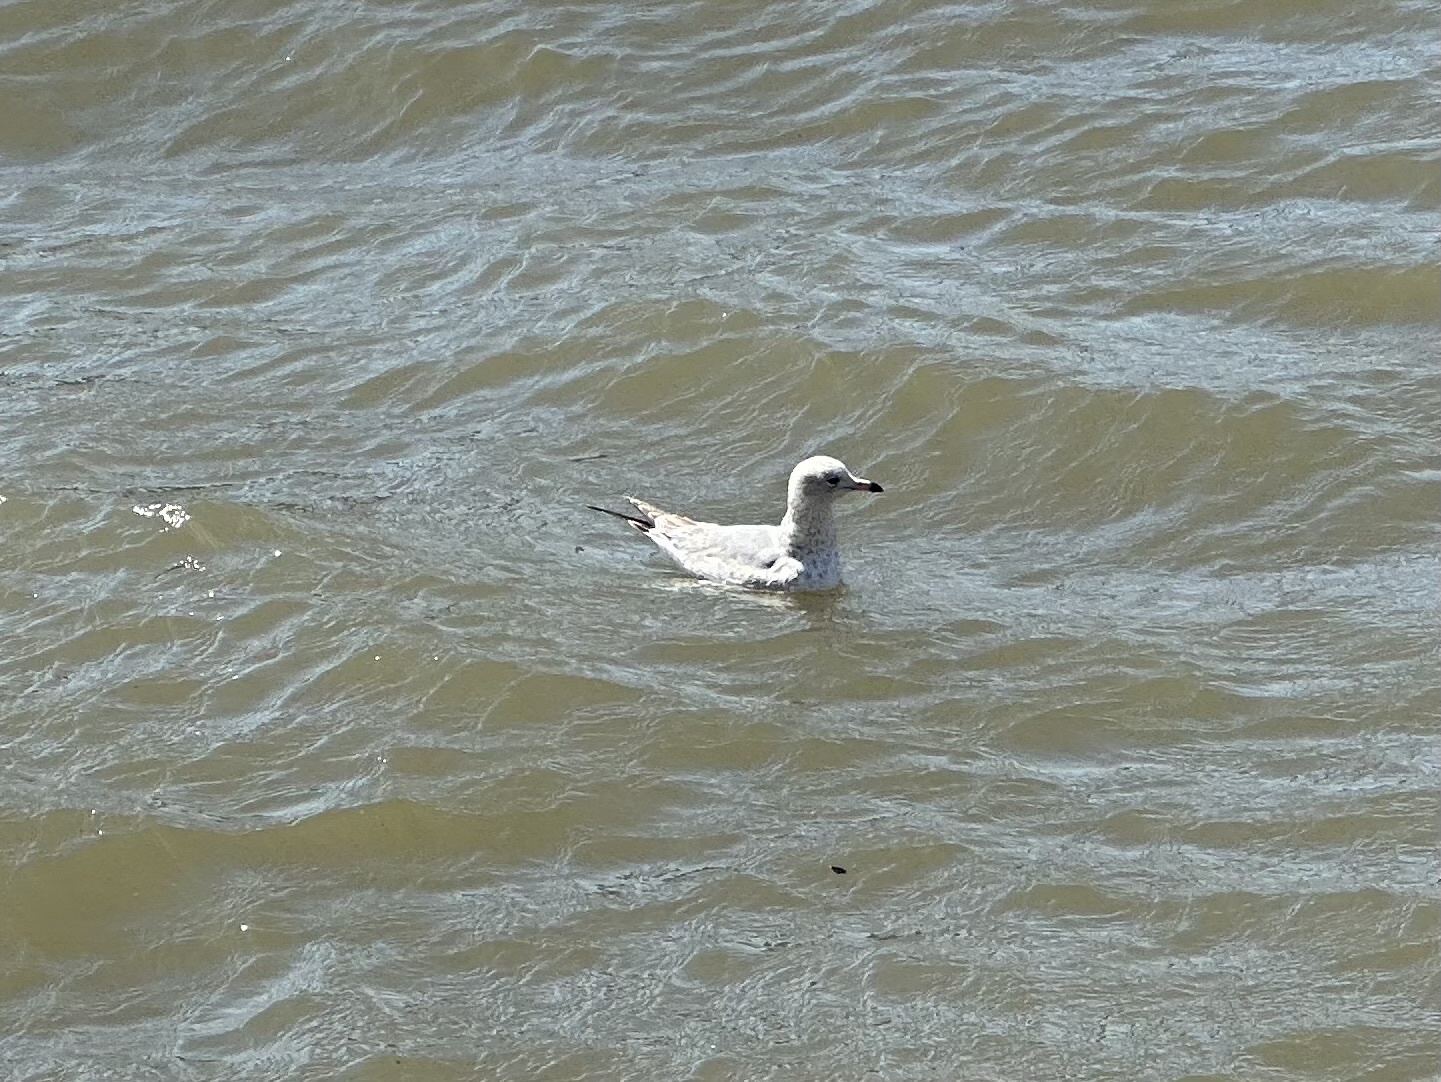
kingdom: Animalia
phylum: Chordata
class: Aves
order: Charadriiformes
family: Laridae
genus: Larus
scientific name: Larus delawarensis
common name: Ring-billed gull
